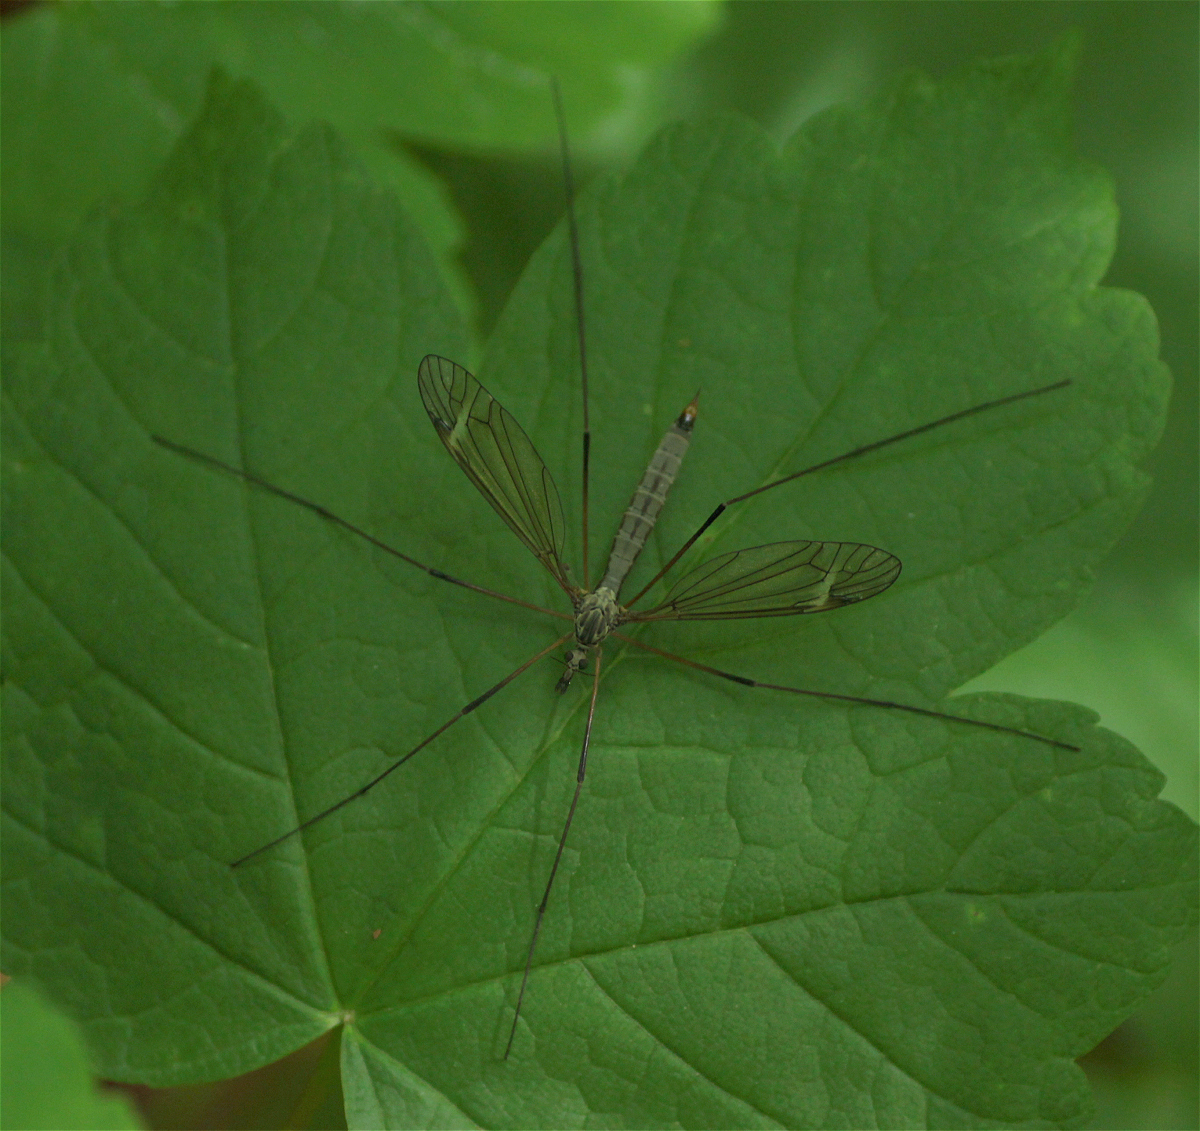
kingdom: Animalia
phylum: Arthropoda
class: Insecta
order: Diptera
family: Tipulidae
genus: Tipula
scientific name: Tipula luna
